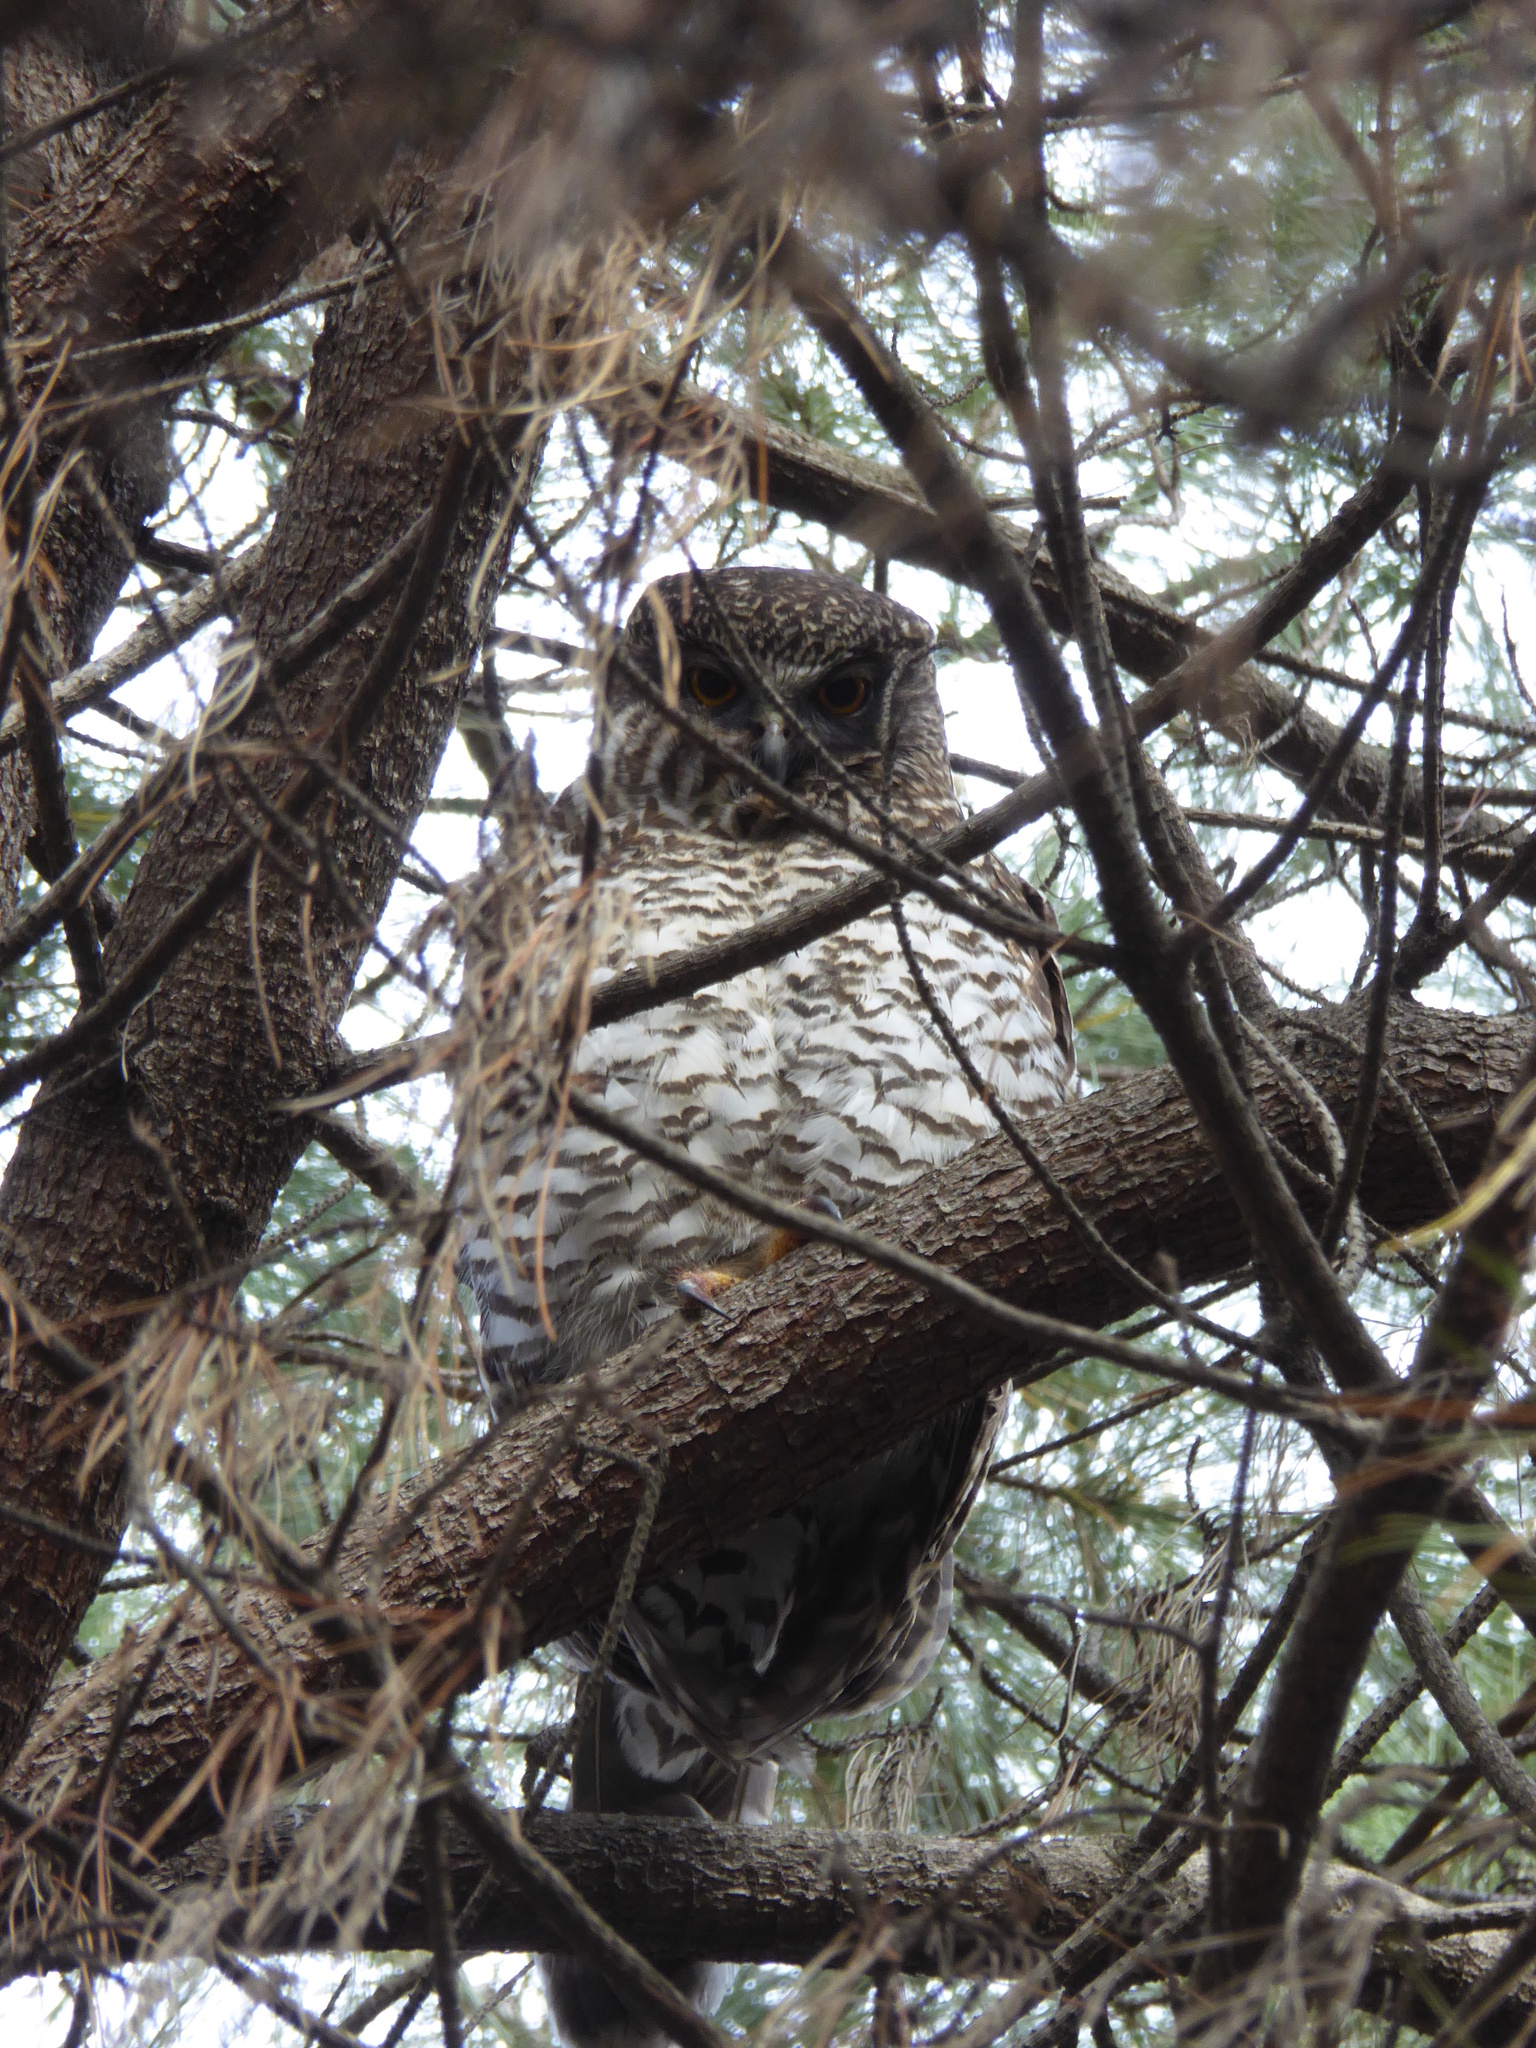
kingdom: Animalia
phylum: Chordata
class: Aves
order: Strigiformes
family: Strigidae
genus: Ninox
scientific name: Ninox strenua
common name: Powerful owl
